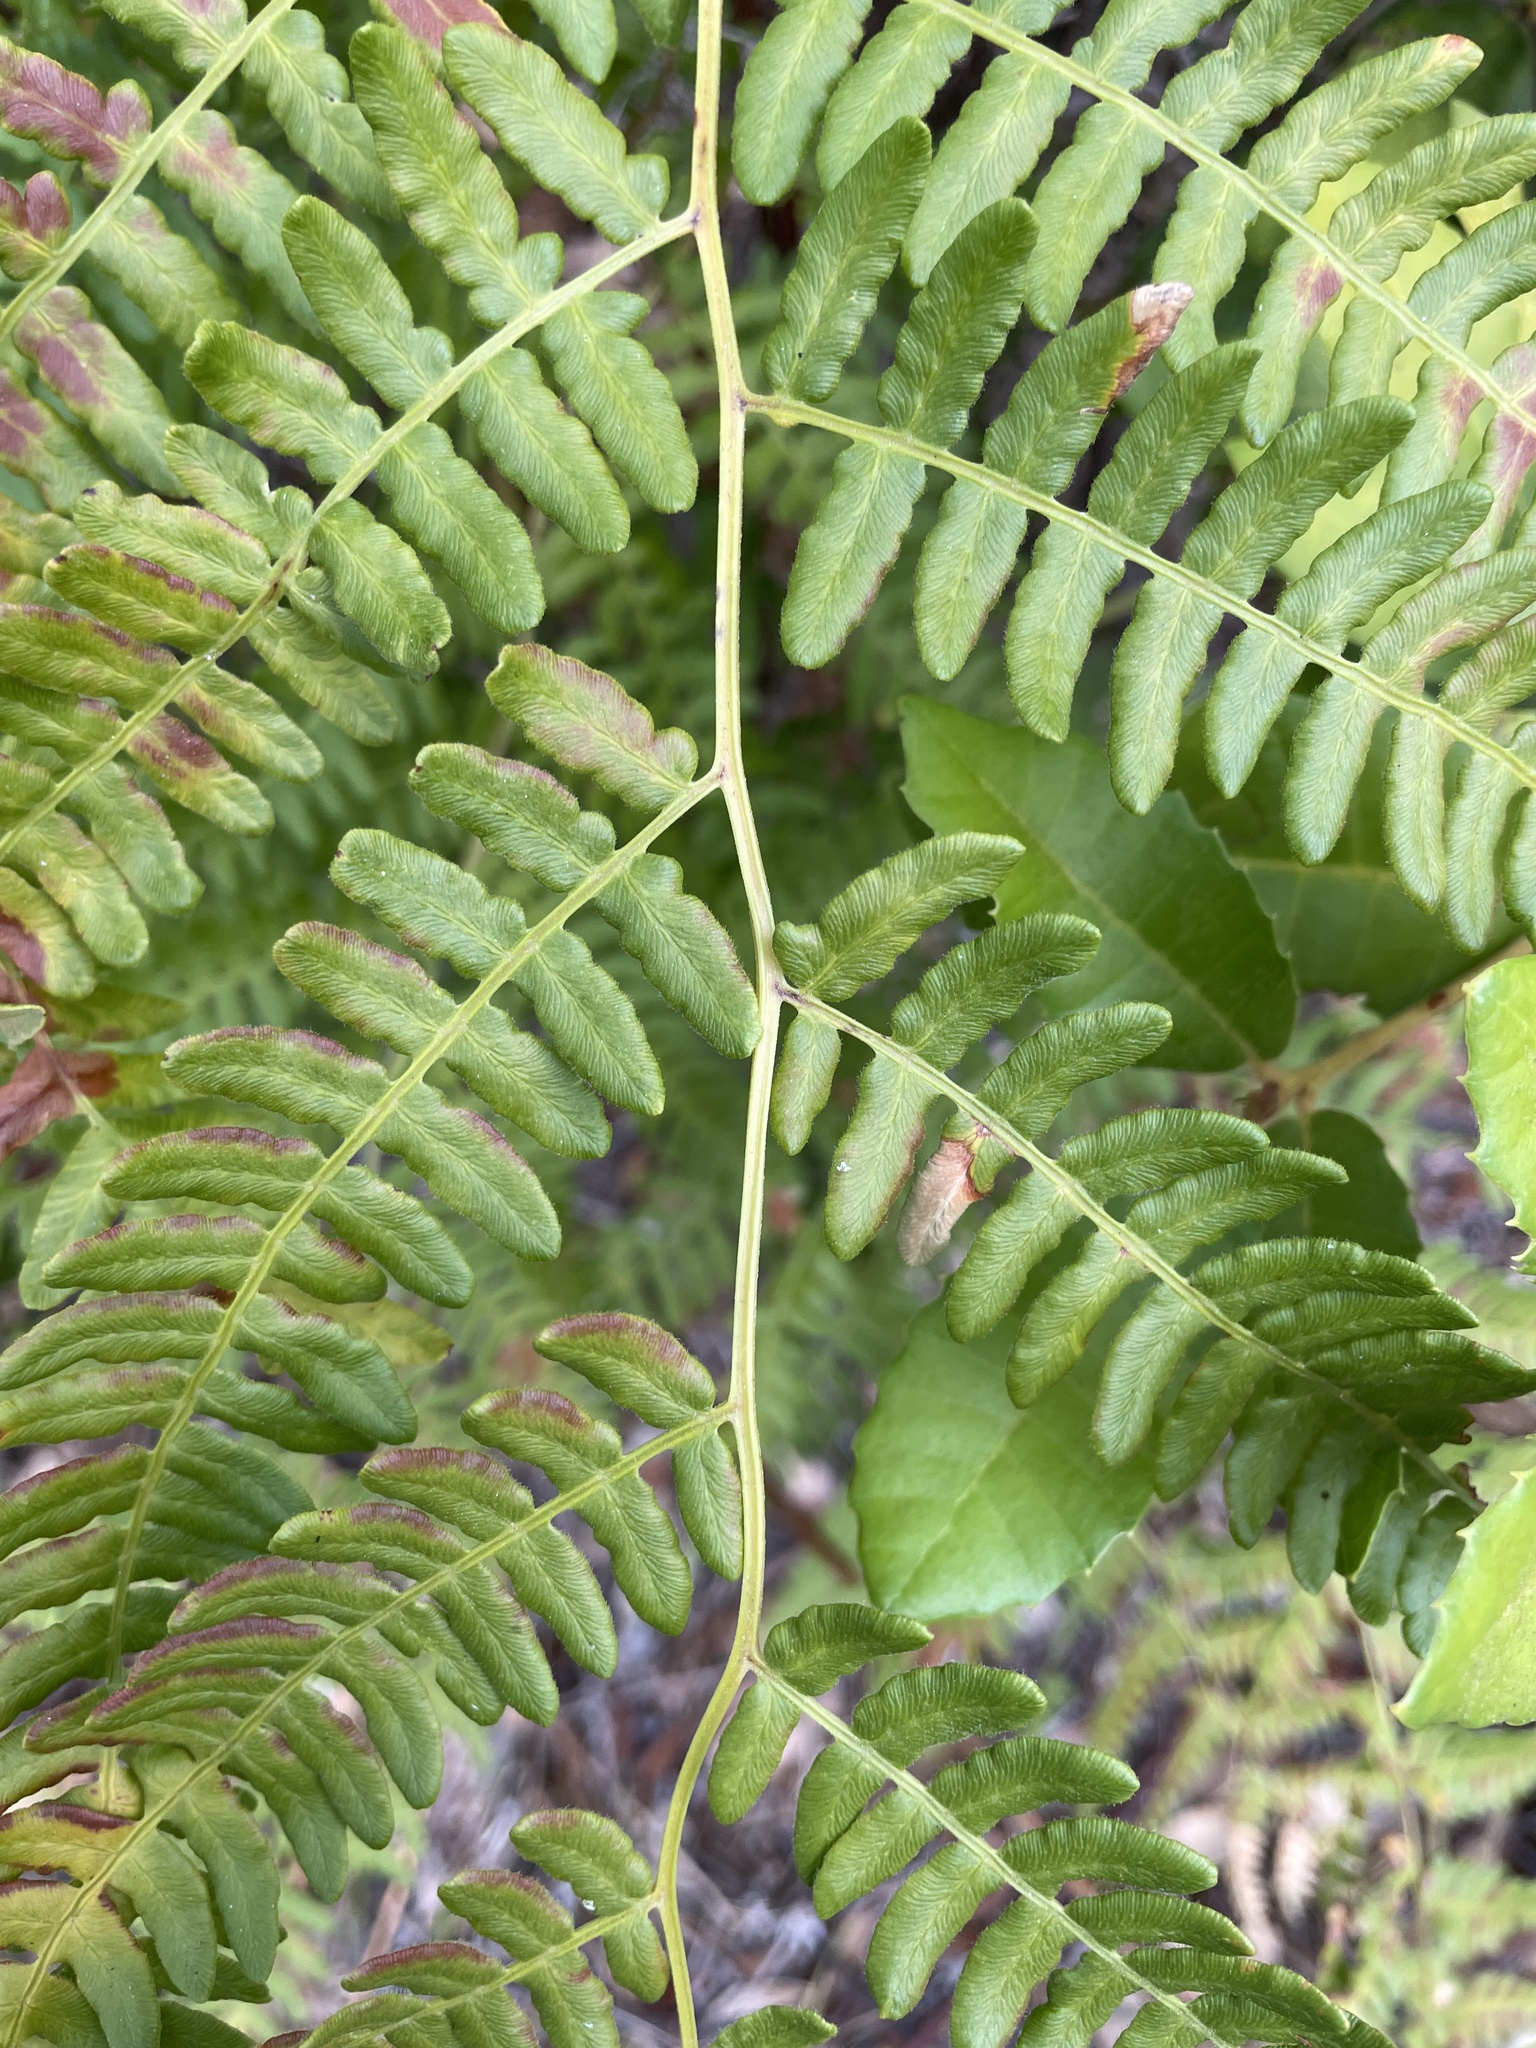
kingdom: Plantae
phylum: Tracheophyta
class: Polypodiopsida
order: Polypodiales
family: Dennstaedtiaceae
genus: Pteridium
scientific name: Pteridium aquilinum
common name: Bracken
